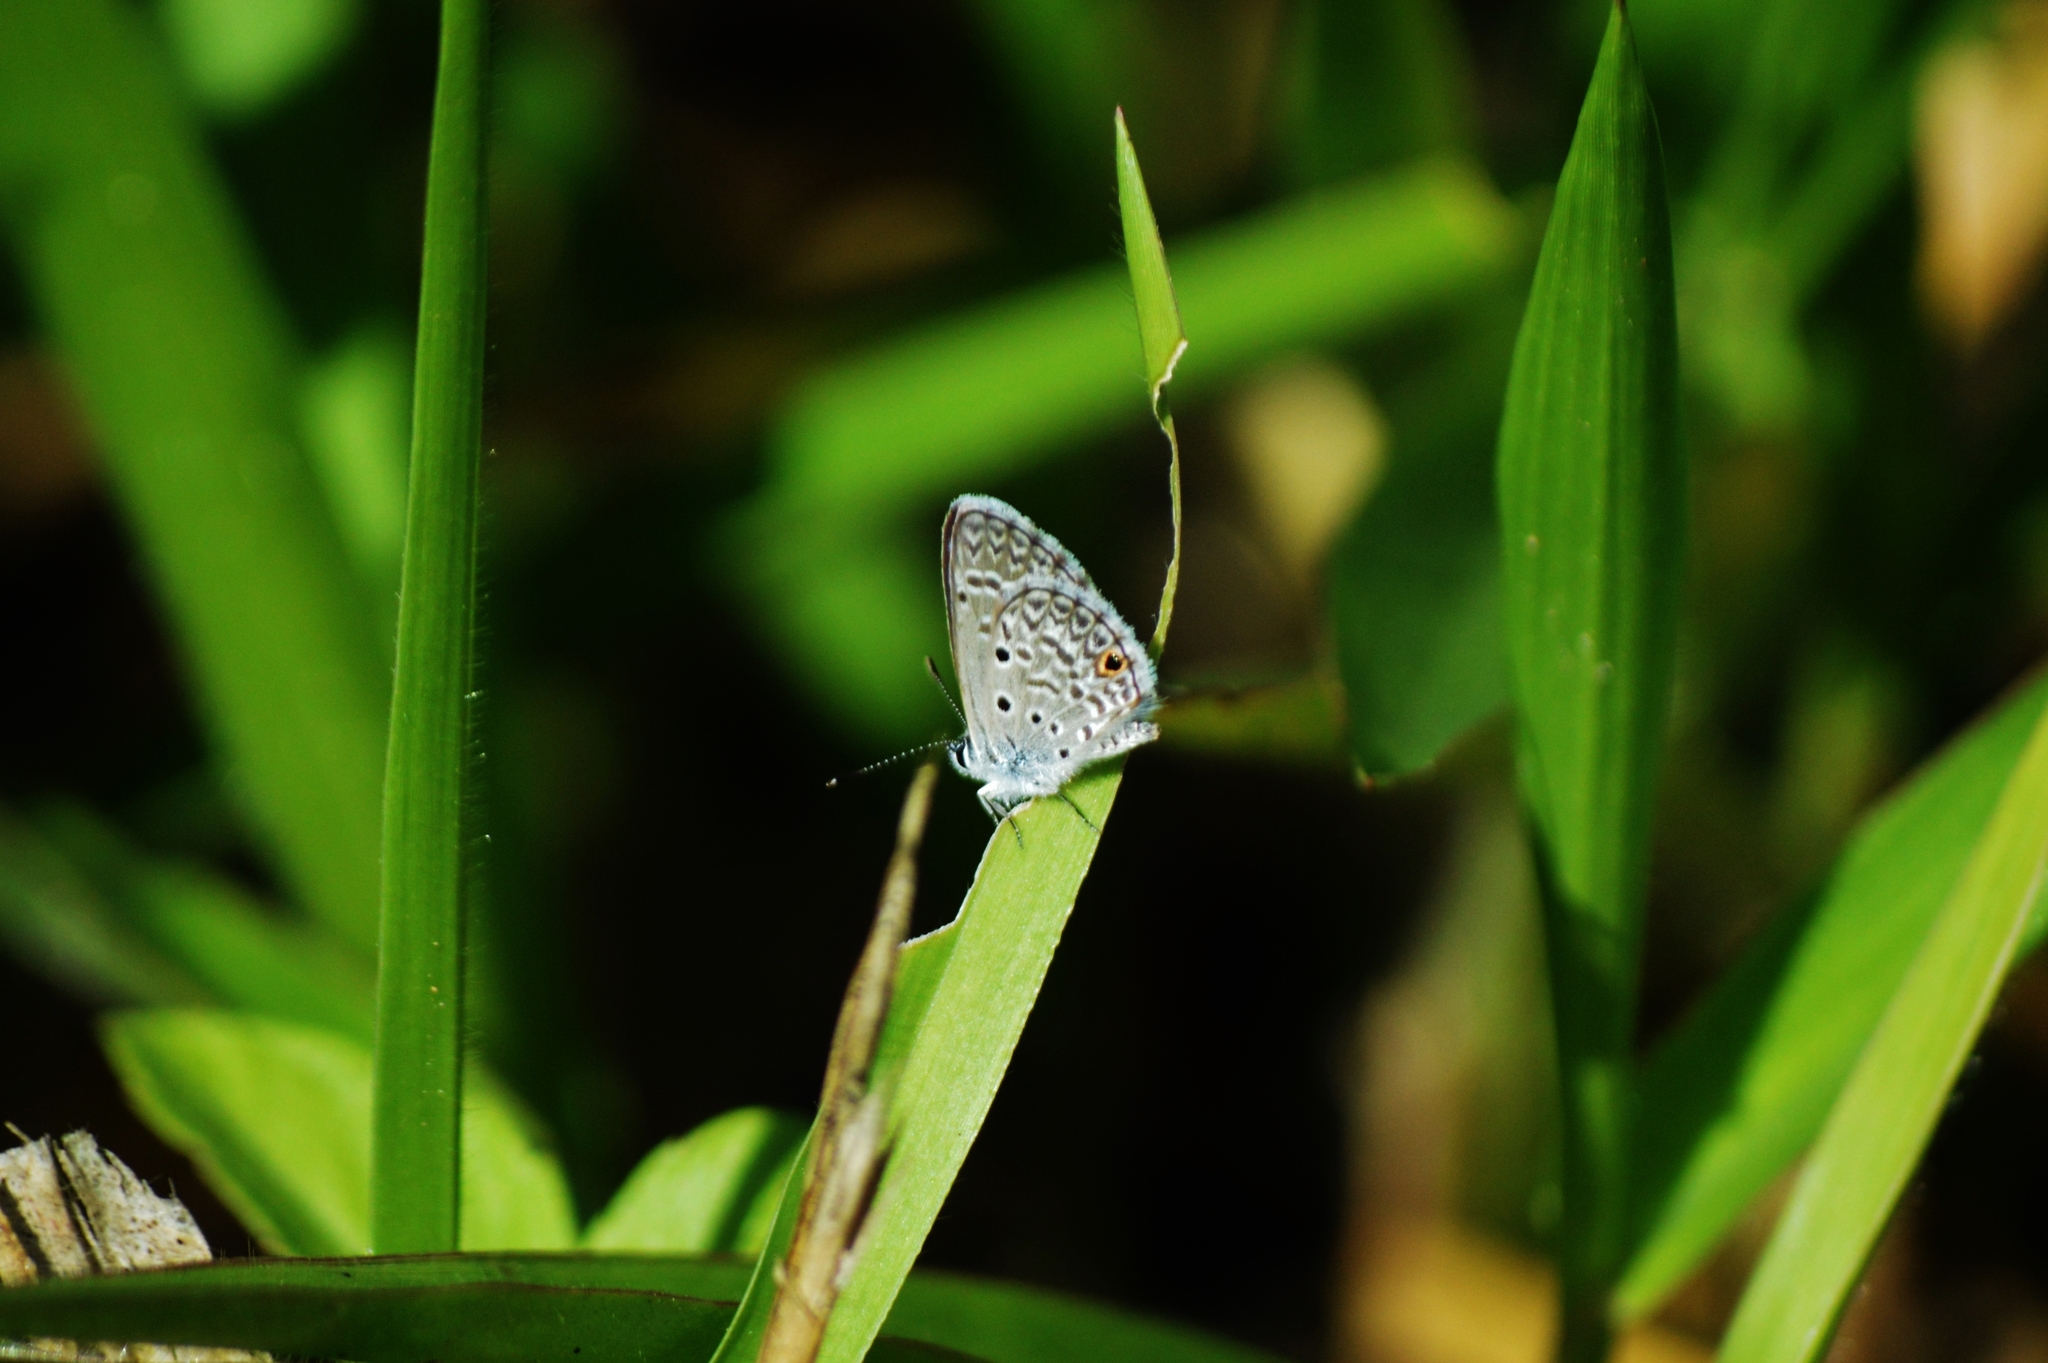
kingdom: Animalia
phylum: Arthropoda
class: Insecta
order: Lepidoptera
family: Lycaenidae
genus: Hemiargus
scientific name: Hemiargus hanno
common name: Common blue
